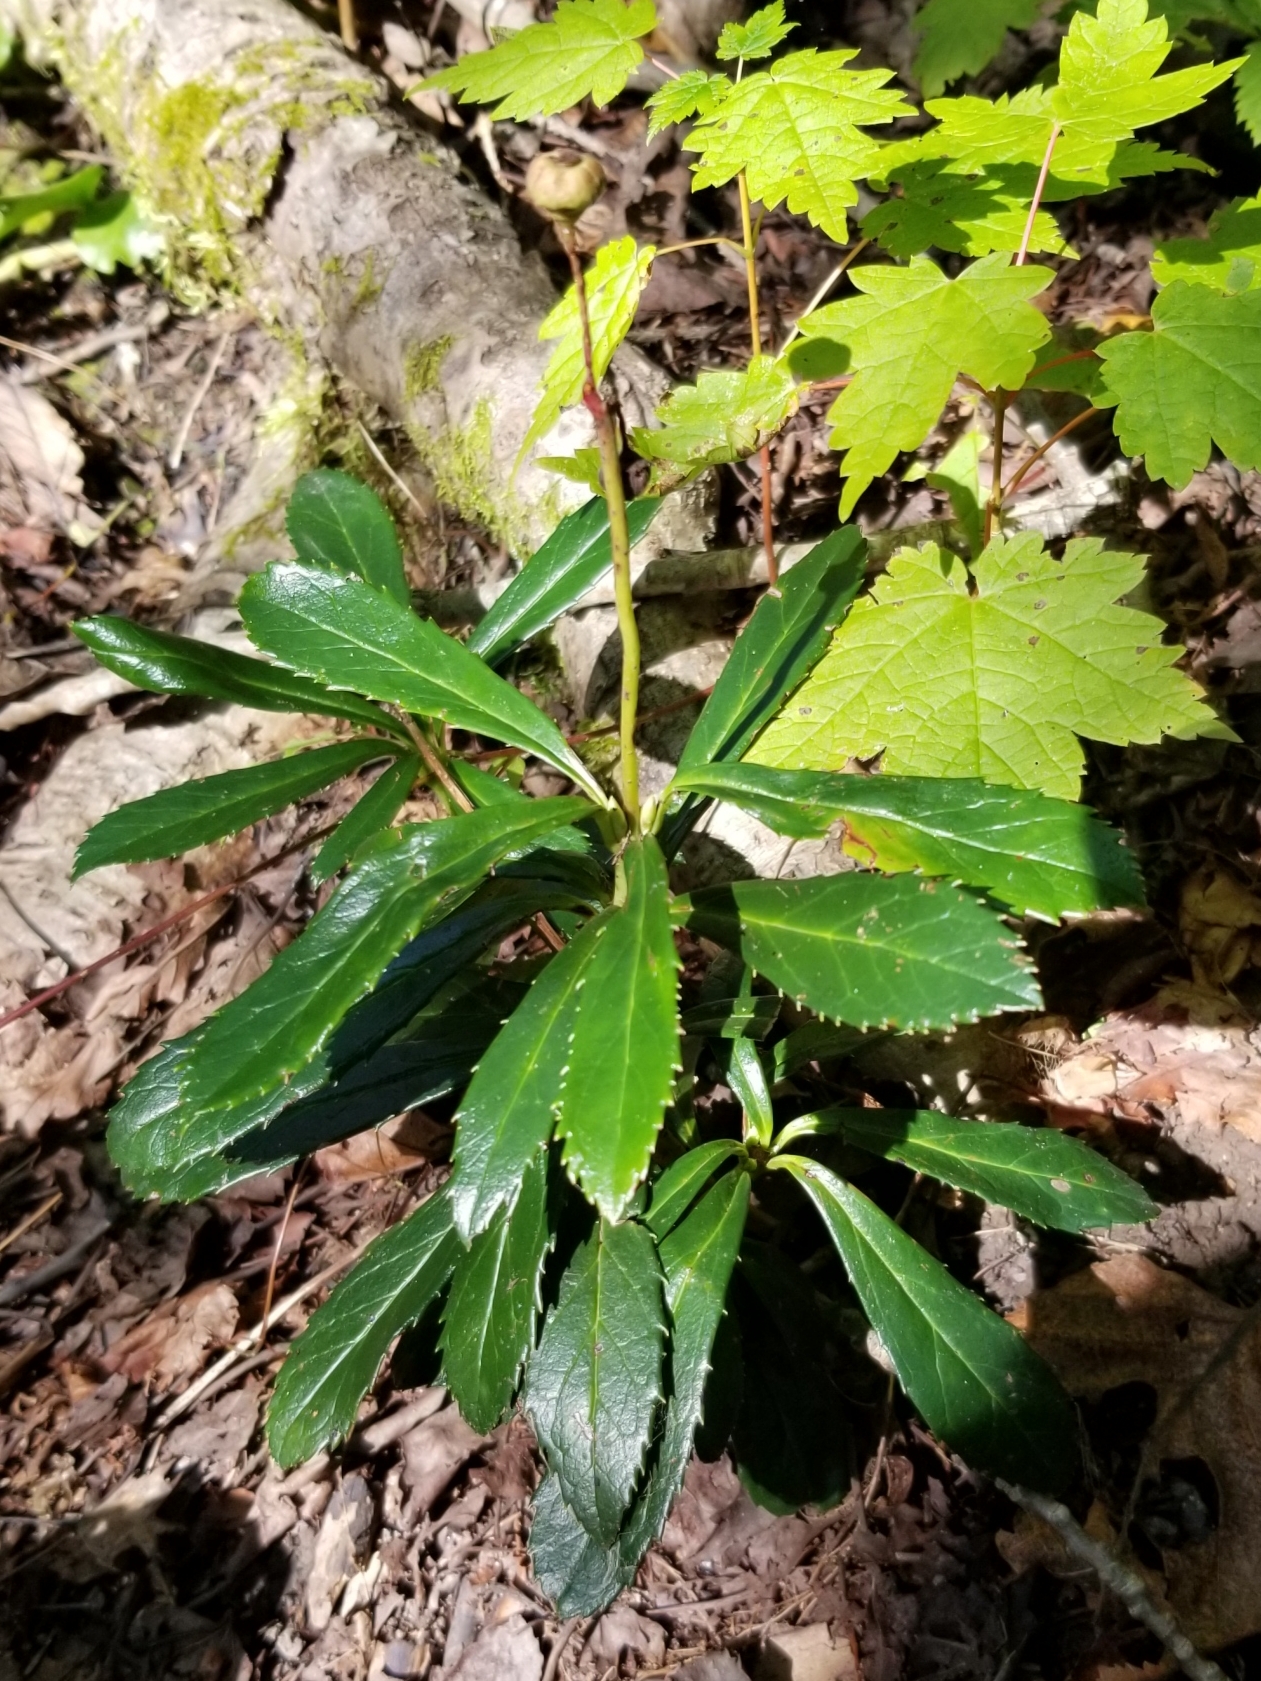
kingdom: Plantae
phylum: Tracheophyta
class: Magnoliopsida
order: Ericales
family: Ericaceae
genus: Chimaphila
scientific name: Chimaphila umbellata
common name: Pipsissewa
